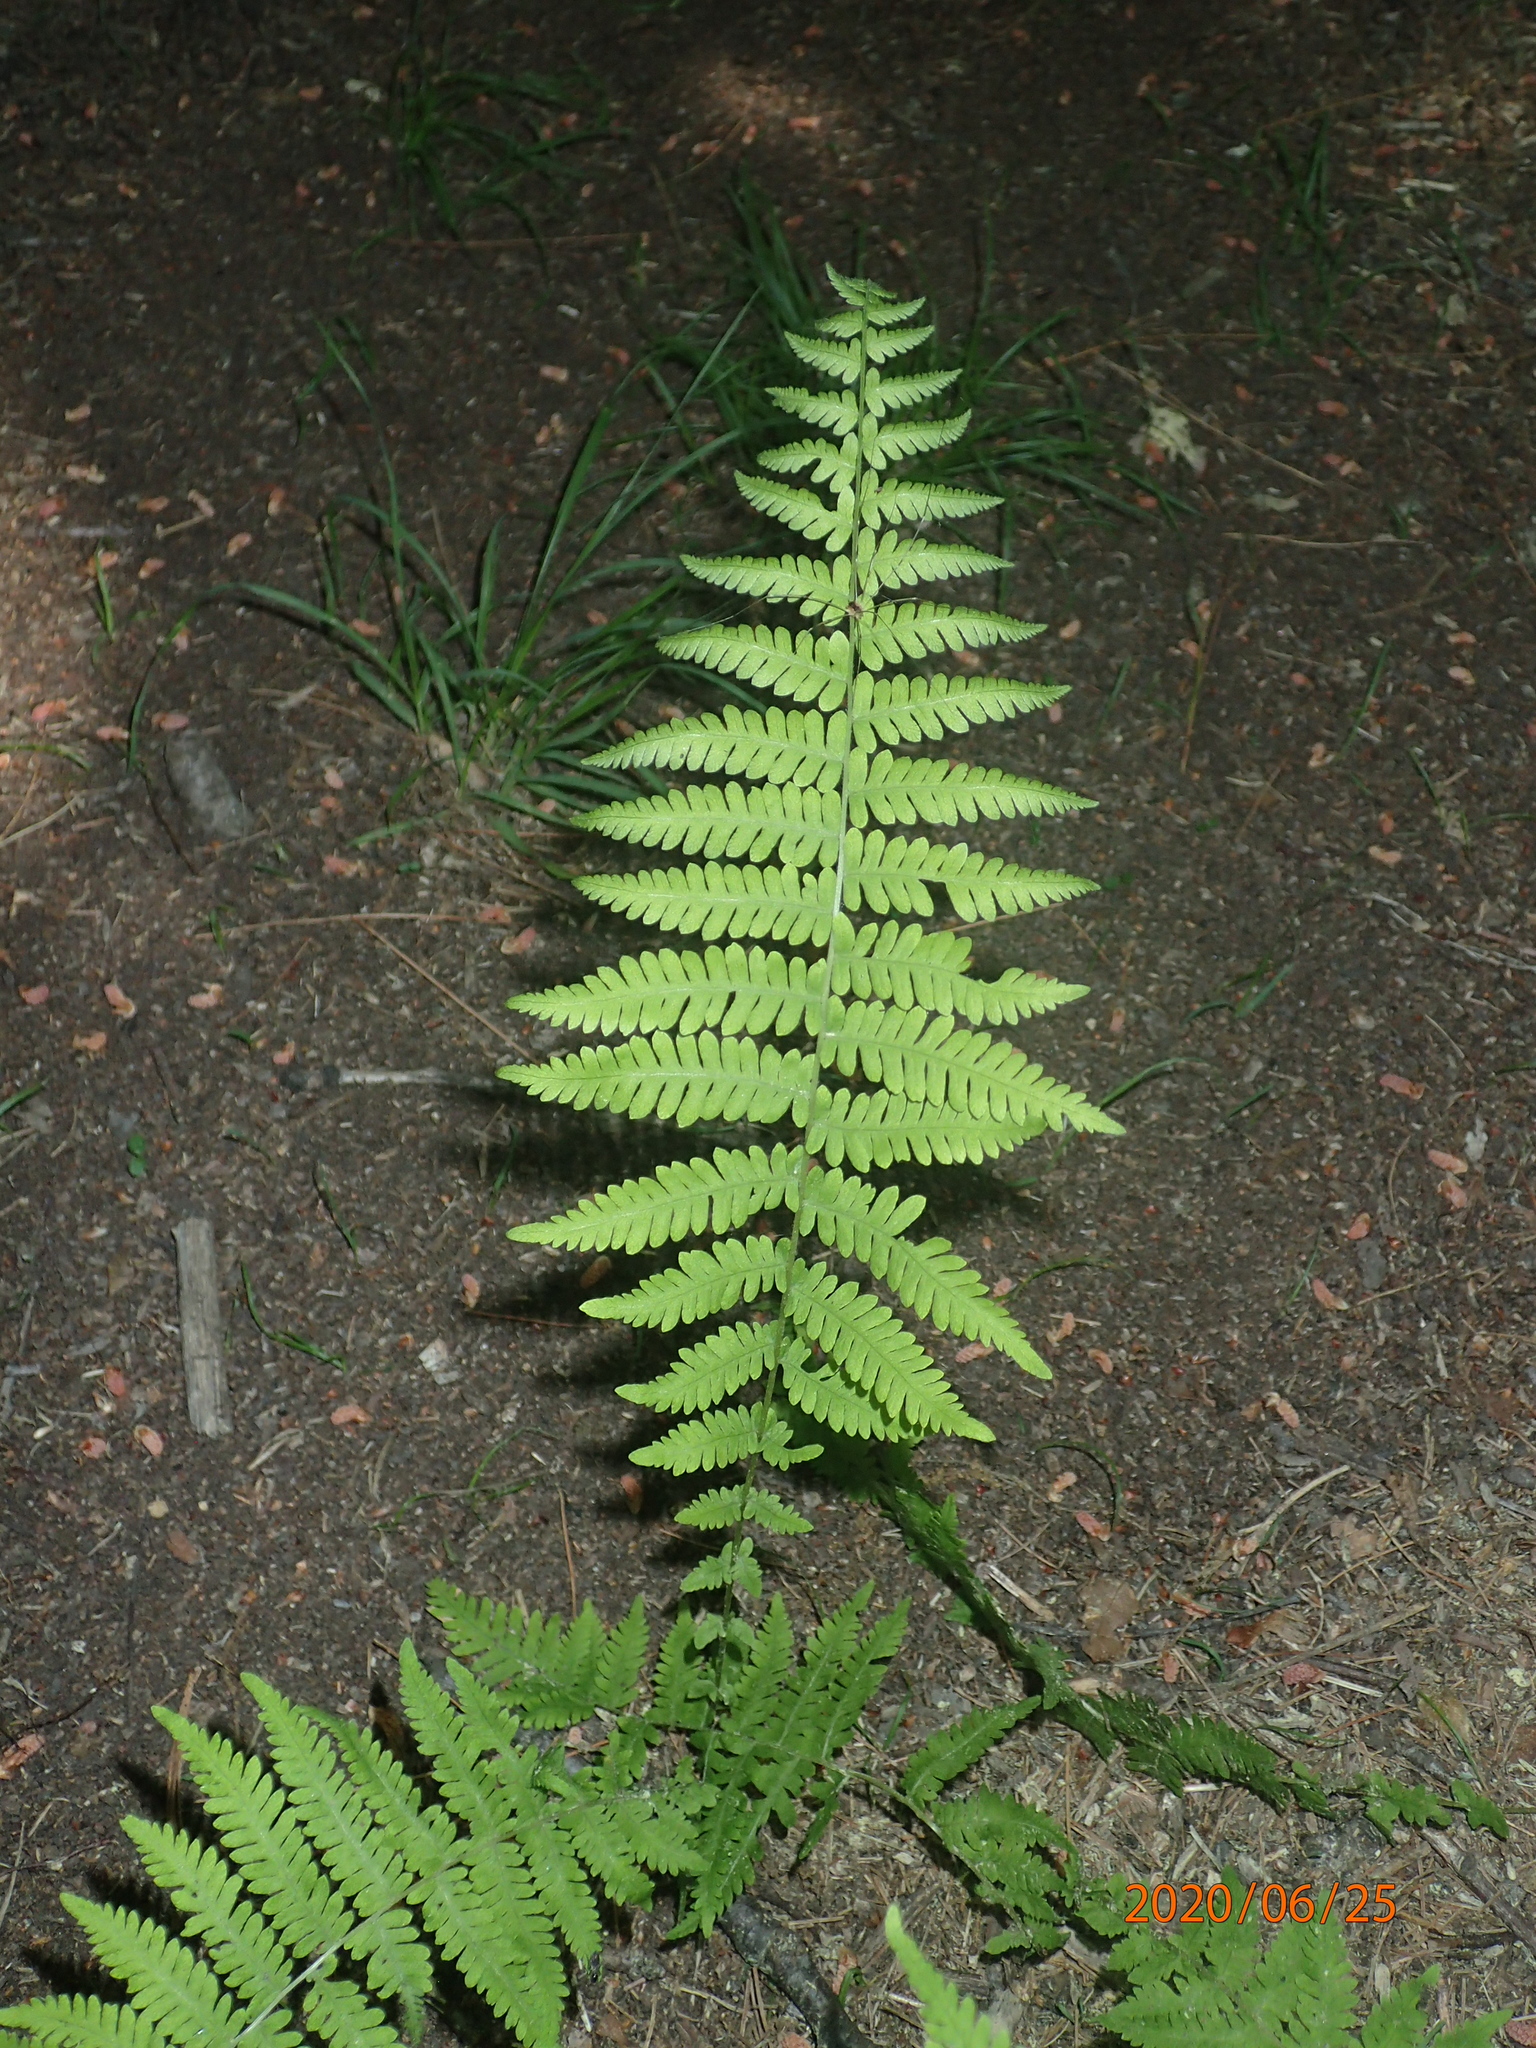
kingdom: Plantae
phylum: Tracheophyta
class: Polypodiopsida
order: Polypodiales
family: Thelypteridaceae
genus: Amauropelta
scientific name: Amauropelta noveboracensis
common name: New york fern
